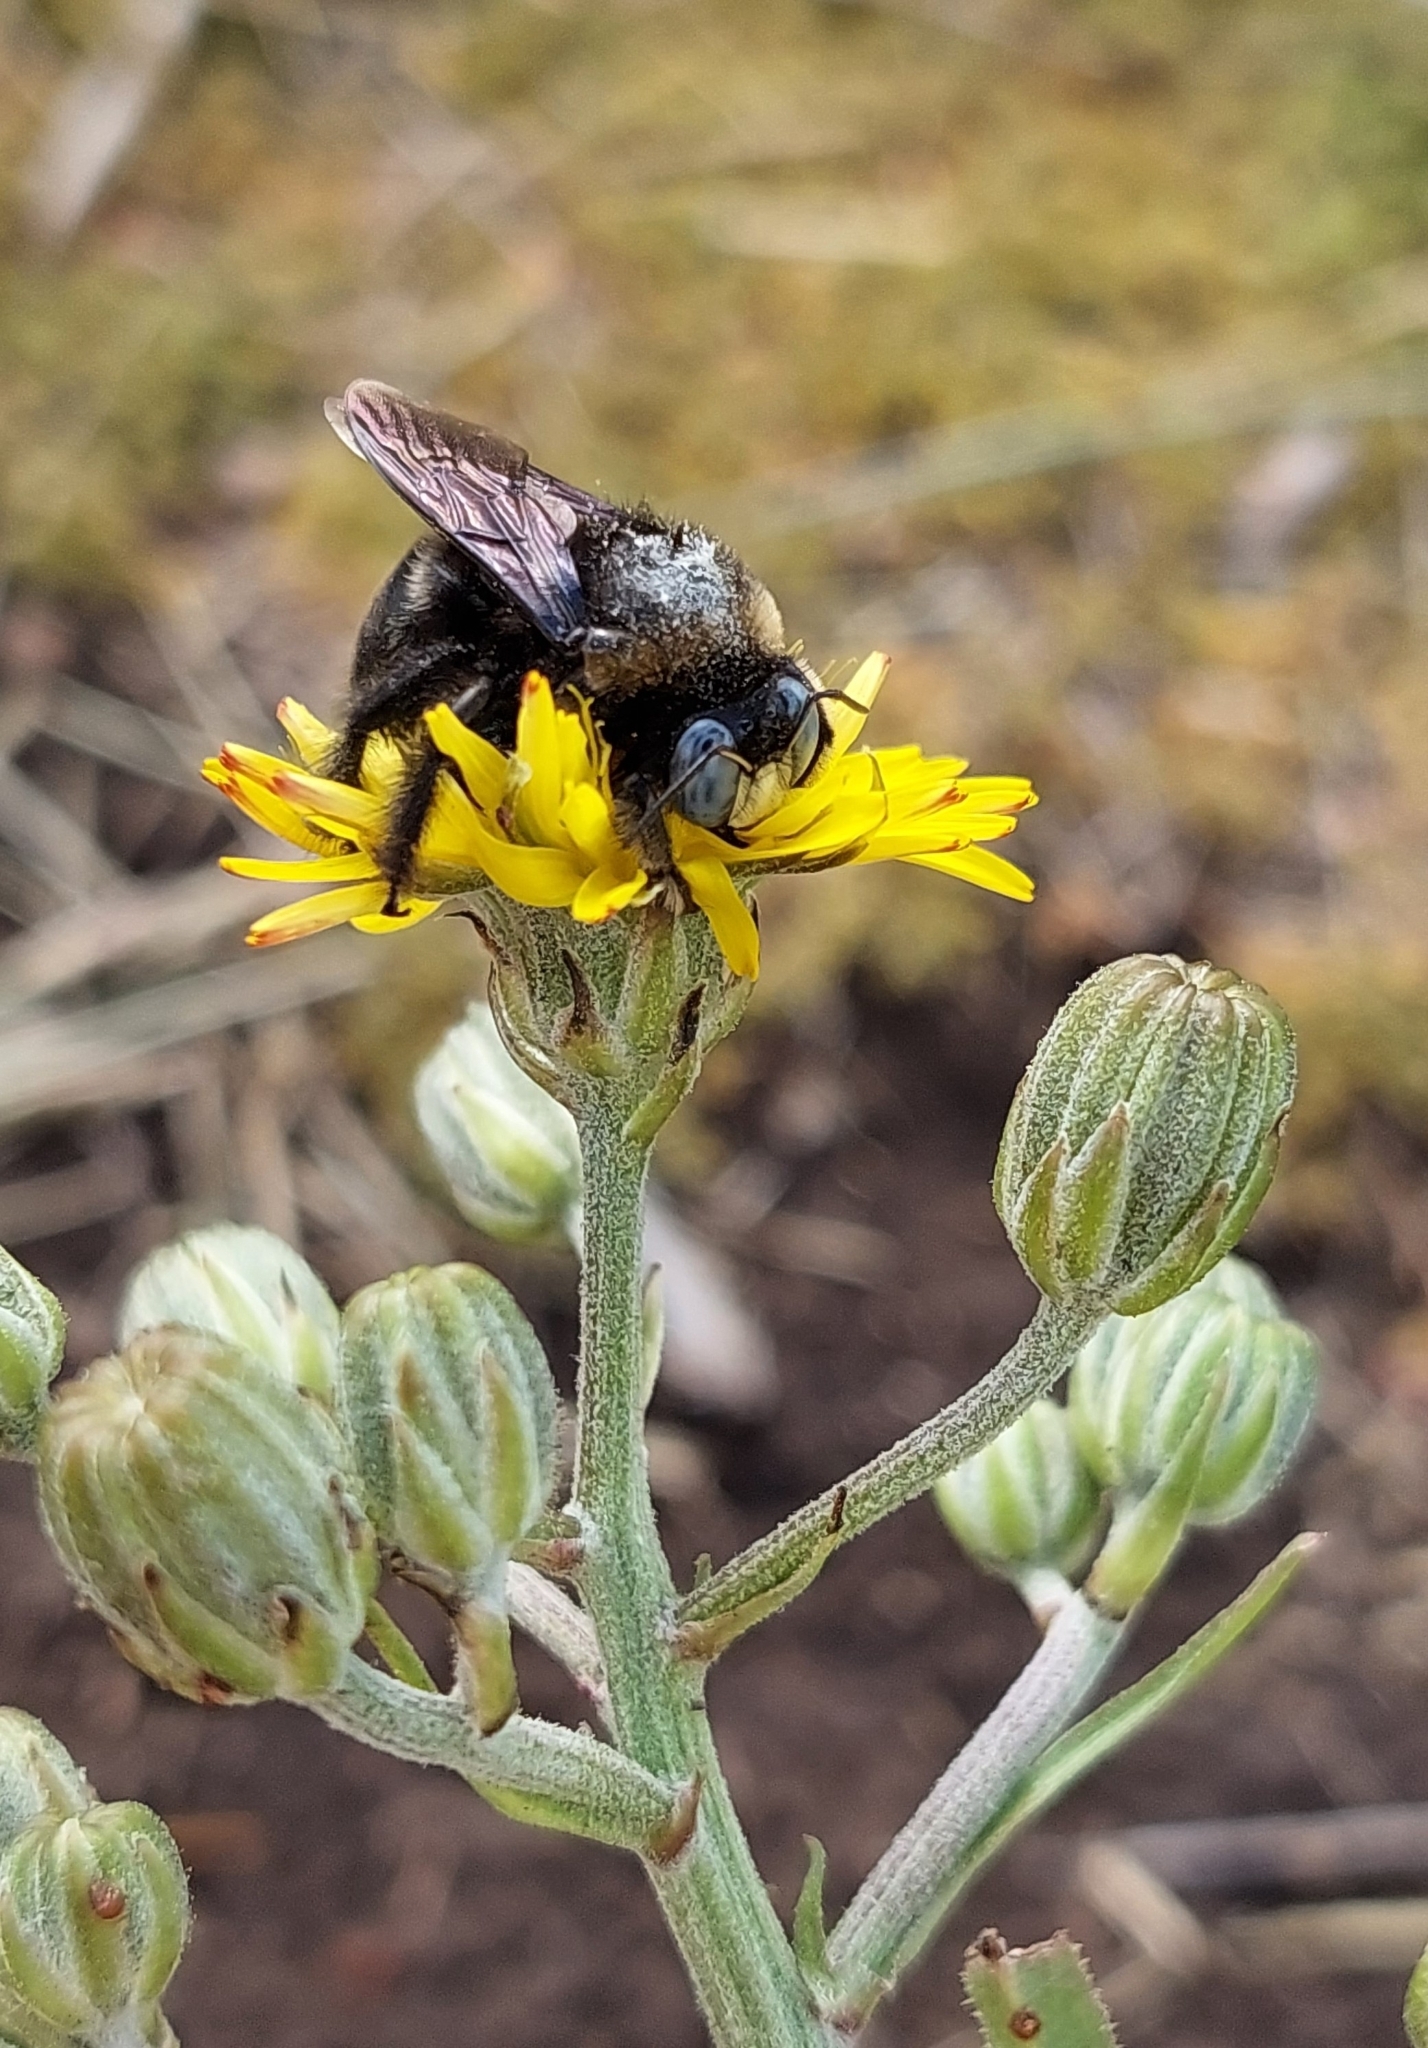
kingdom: Animalia
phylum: Arthropoda
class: Insecta
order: Hymenoptera
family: Apidae
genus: Xylocopa
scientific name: Xylocopa splendidula
